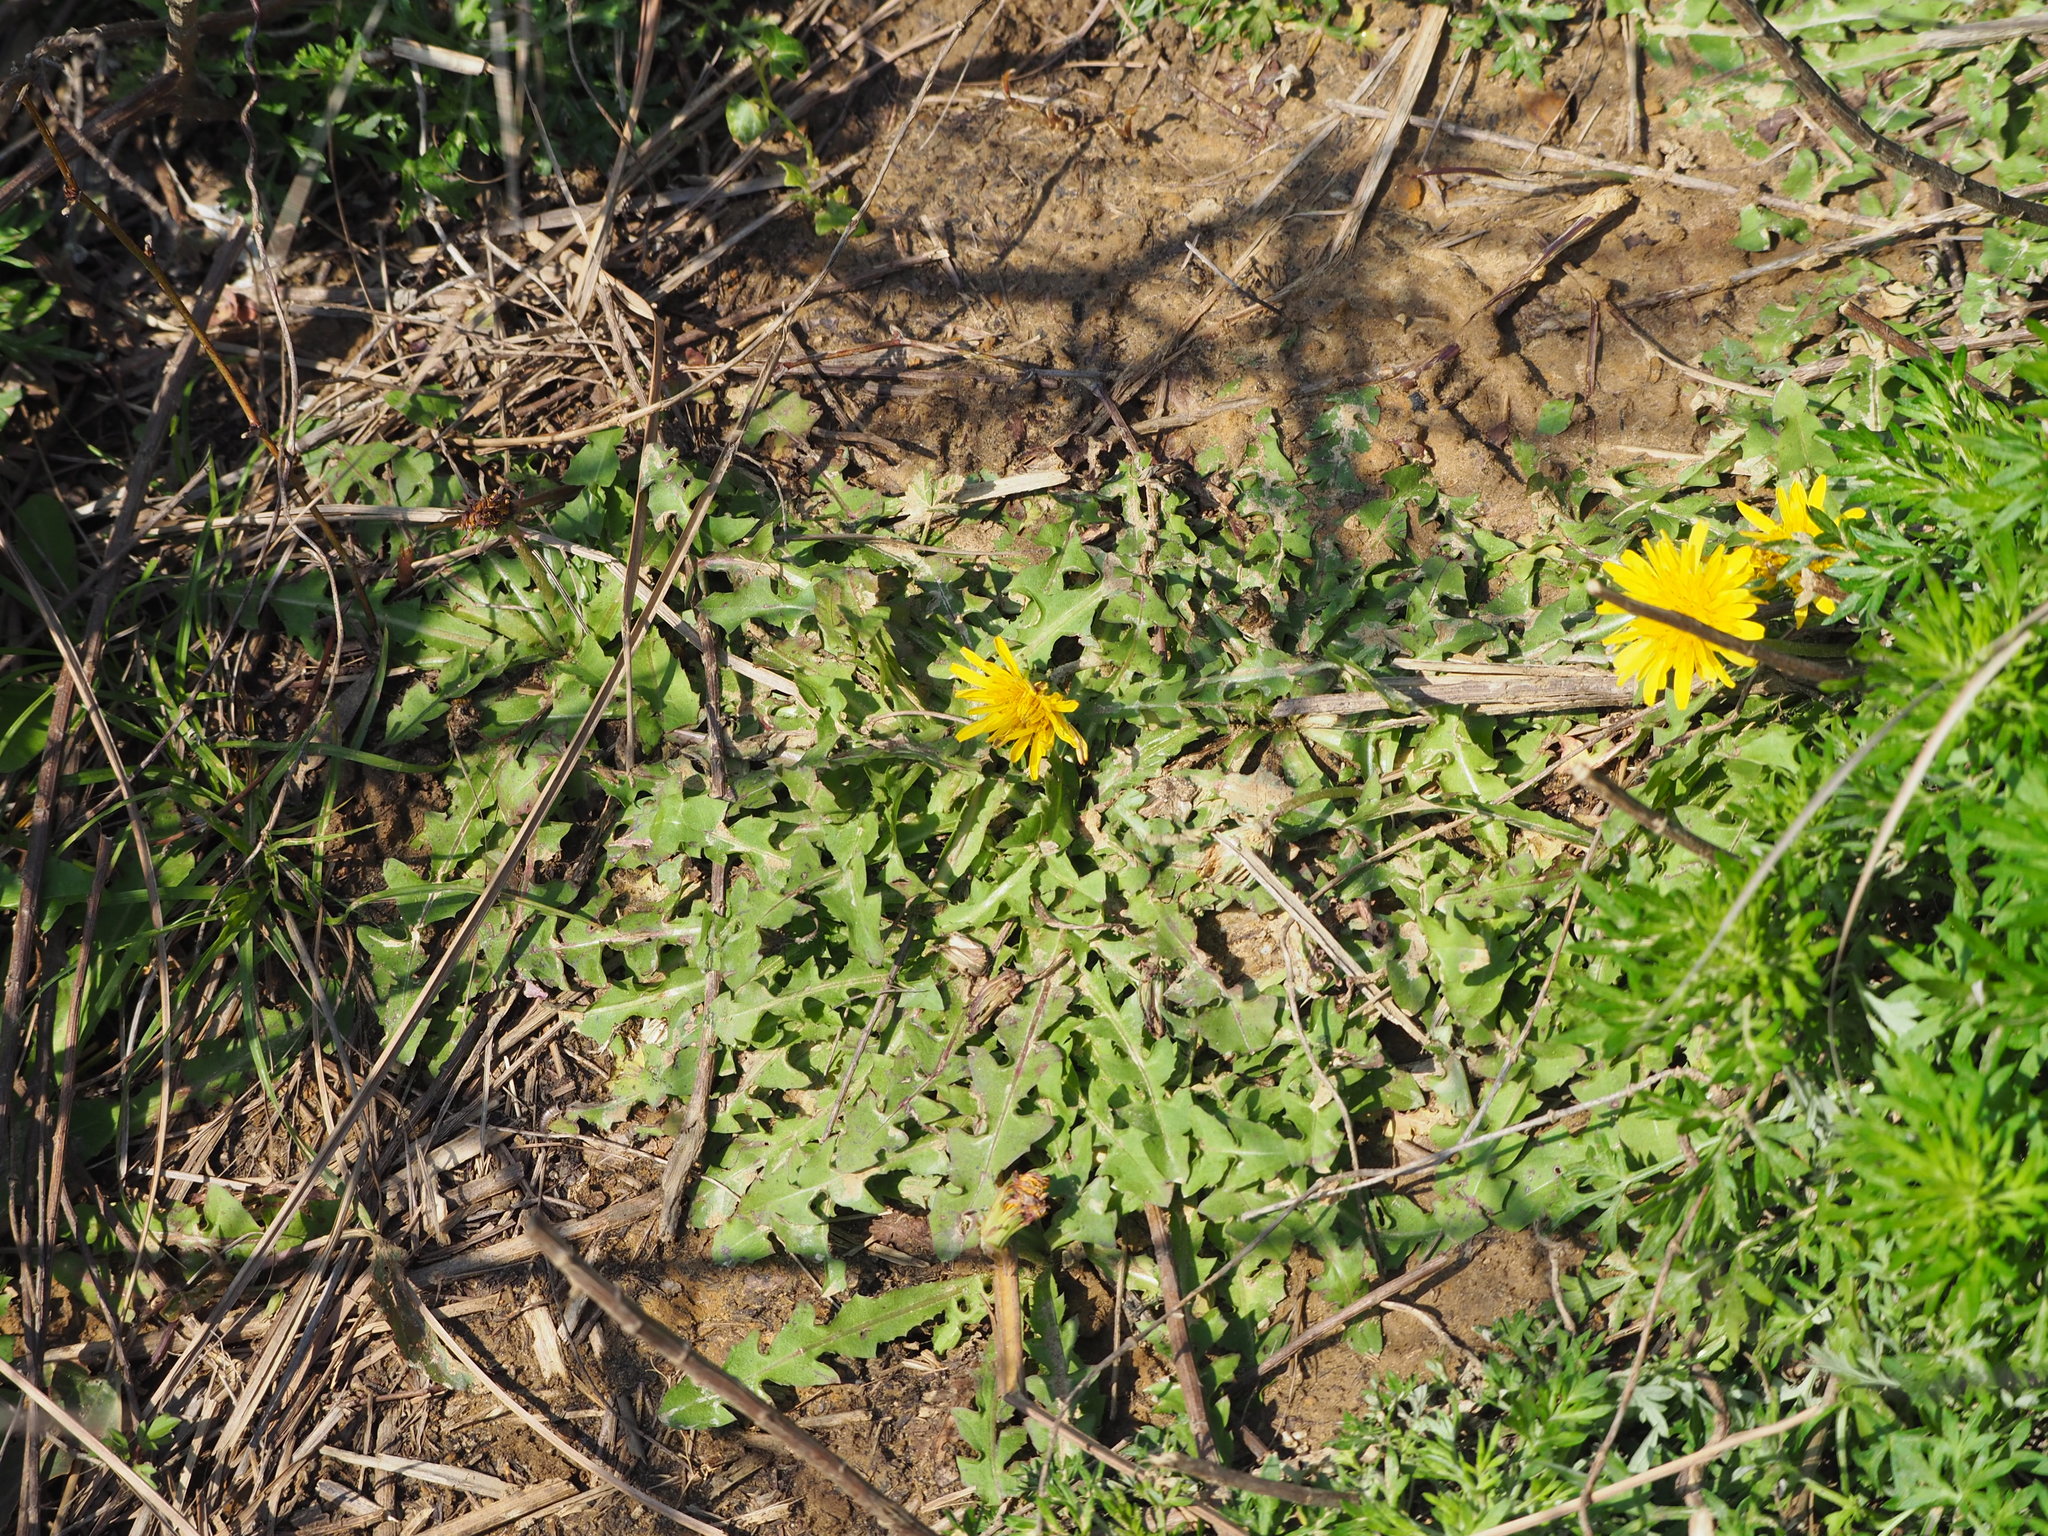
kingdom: Plantae
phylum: Tracheophyta
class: Magnoliopsida
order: Asterales
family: Asteraceae
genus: Taraxacum
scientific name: Taraxacum formosanum
